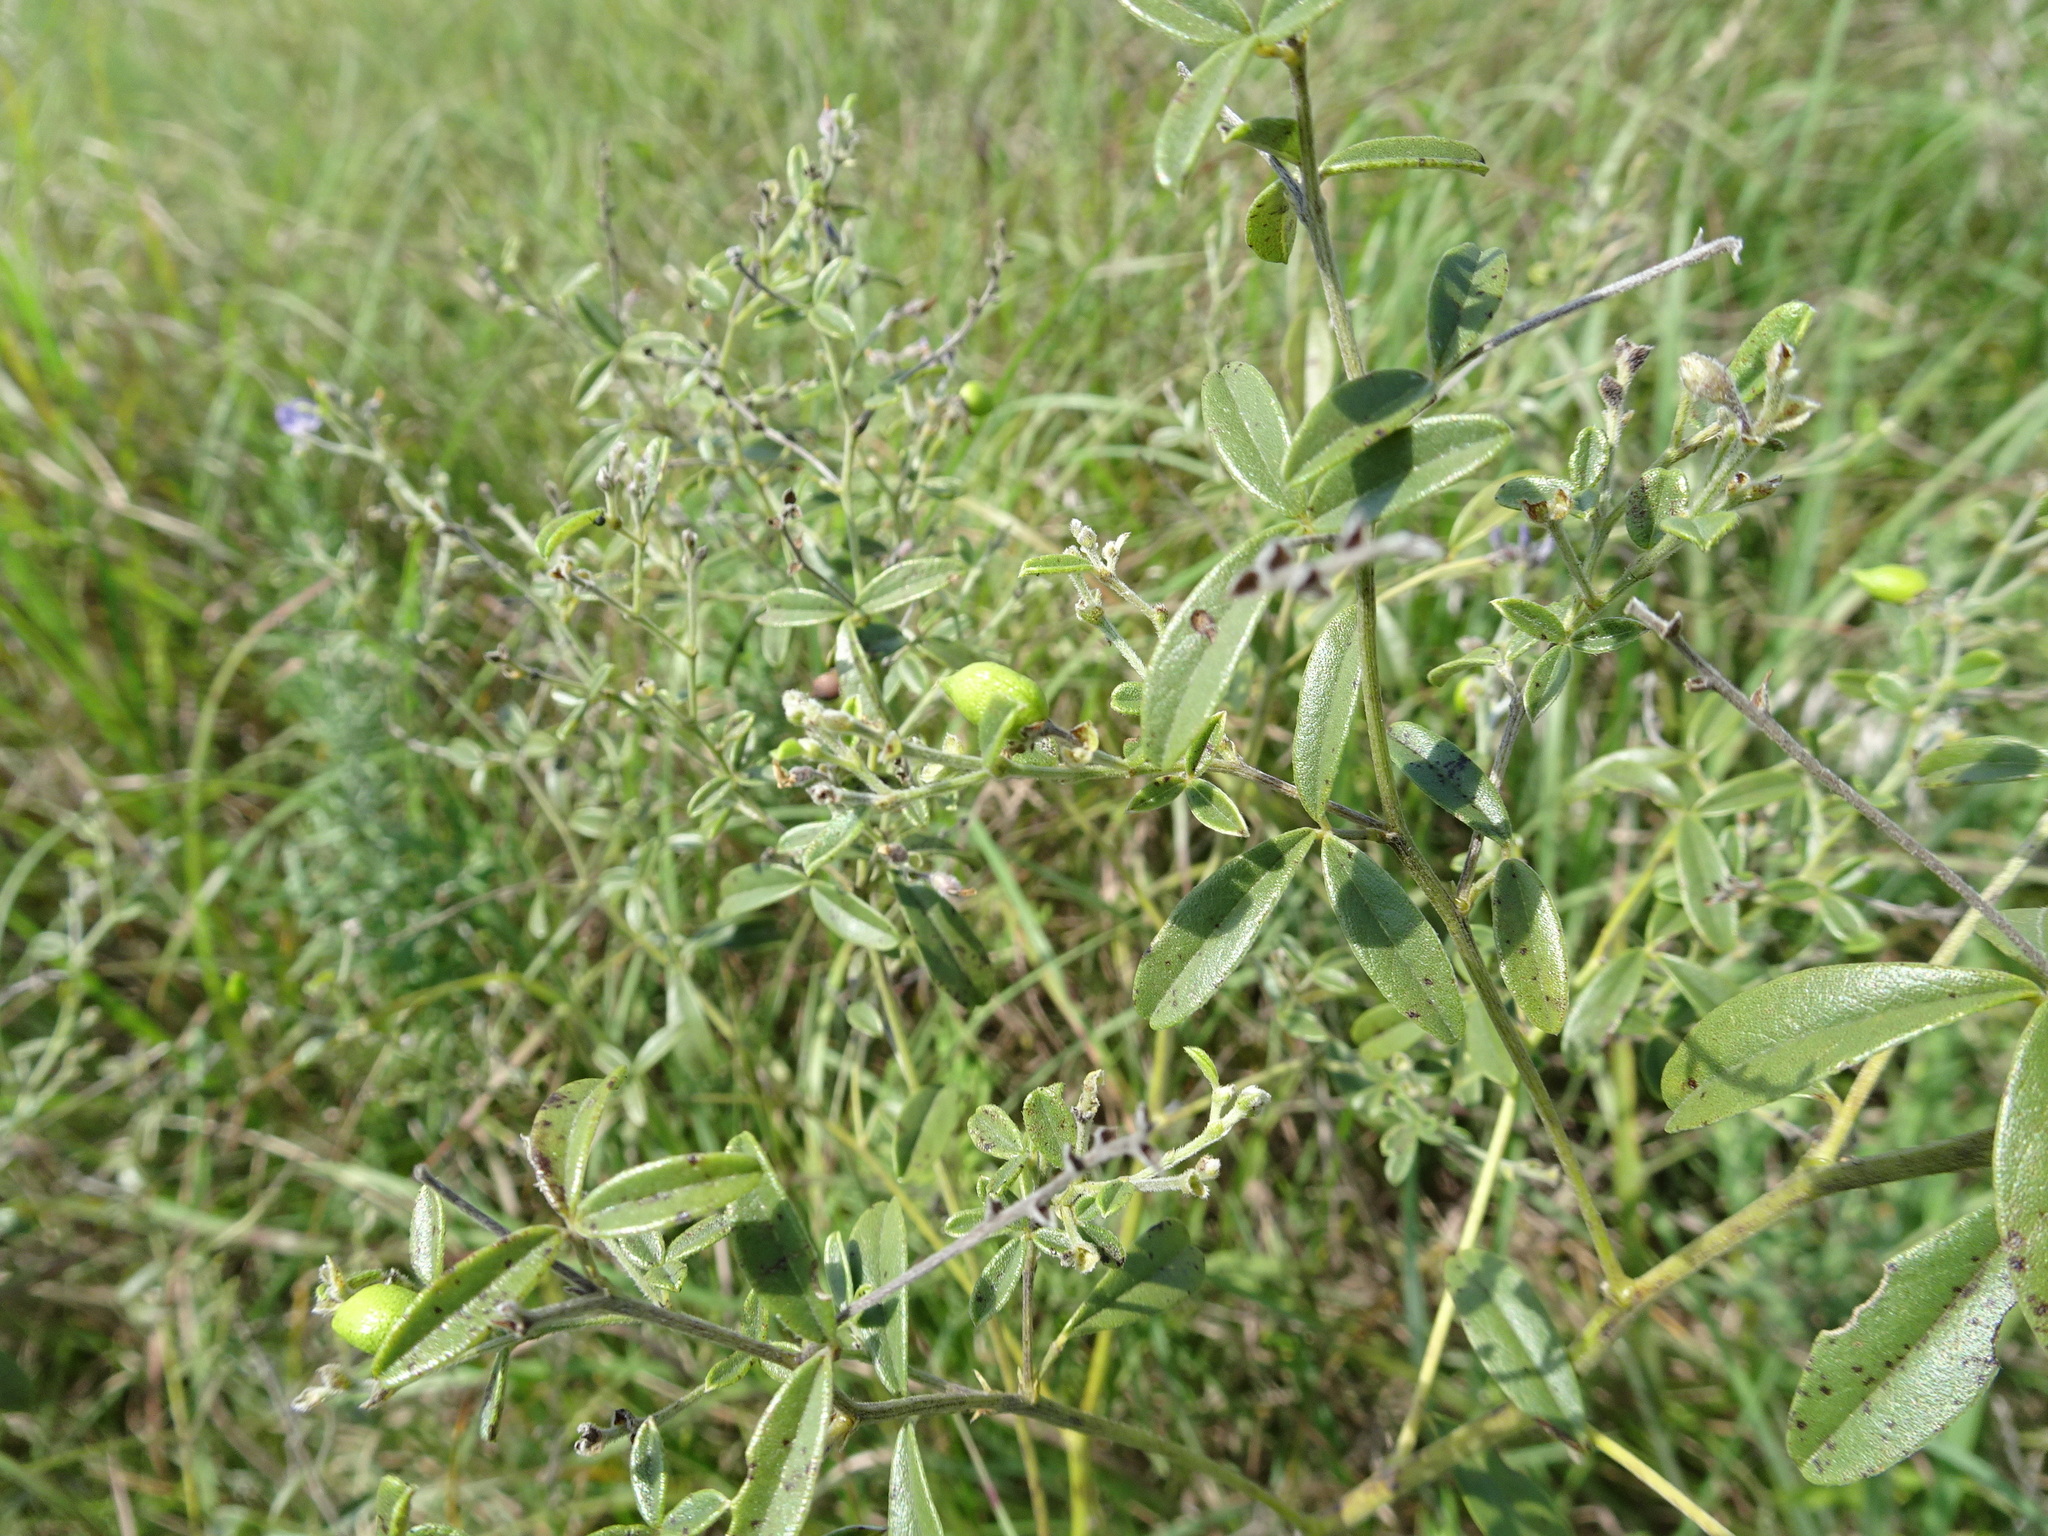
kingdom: Plantae
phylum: Tracheophyta
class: Magnoliopsida
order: Fabales
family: Fabaceae
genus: Pediomelum
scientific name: Pediomelum tenuiflorum
